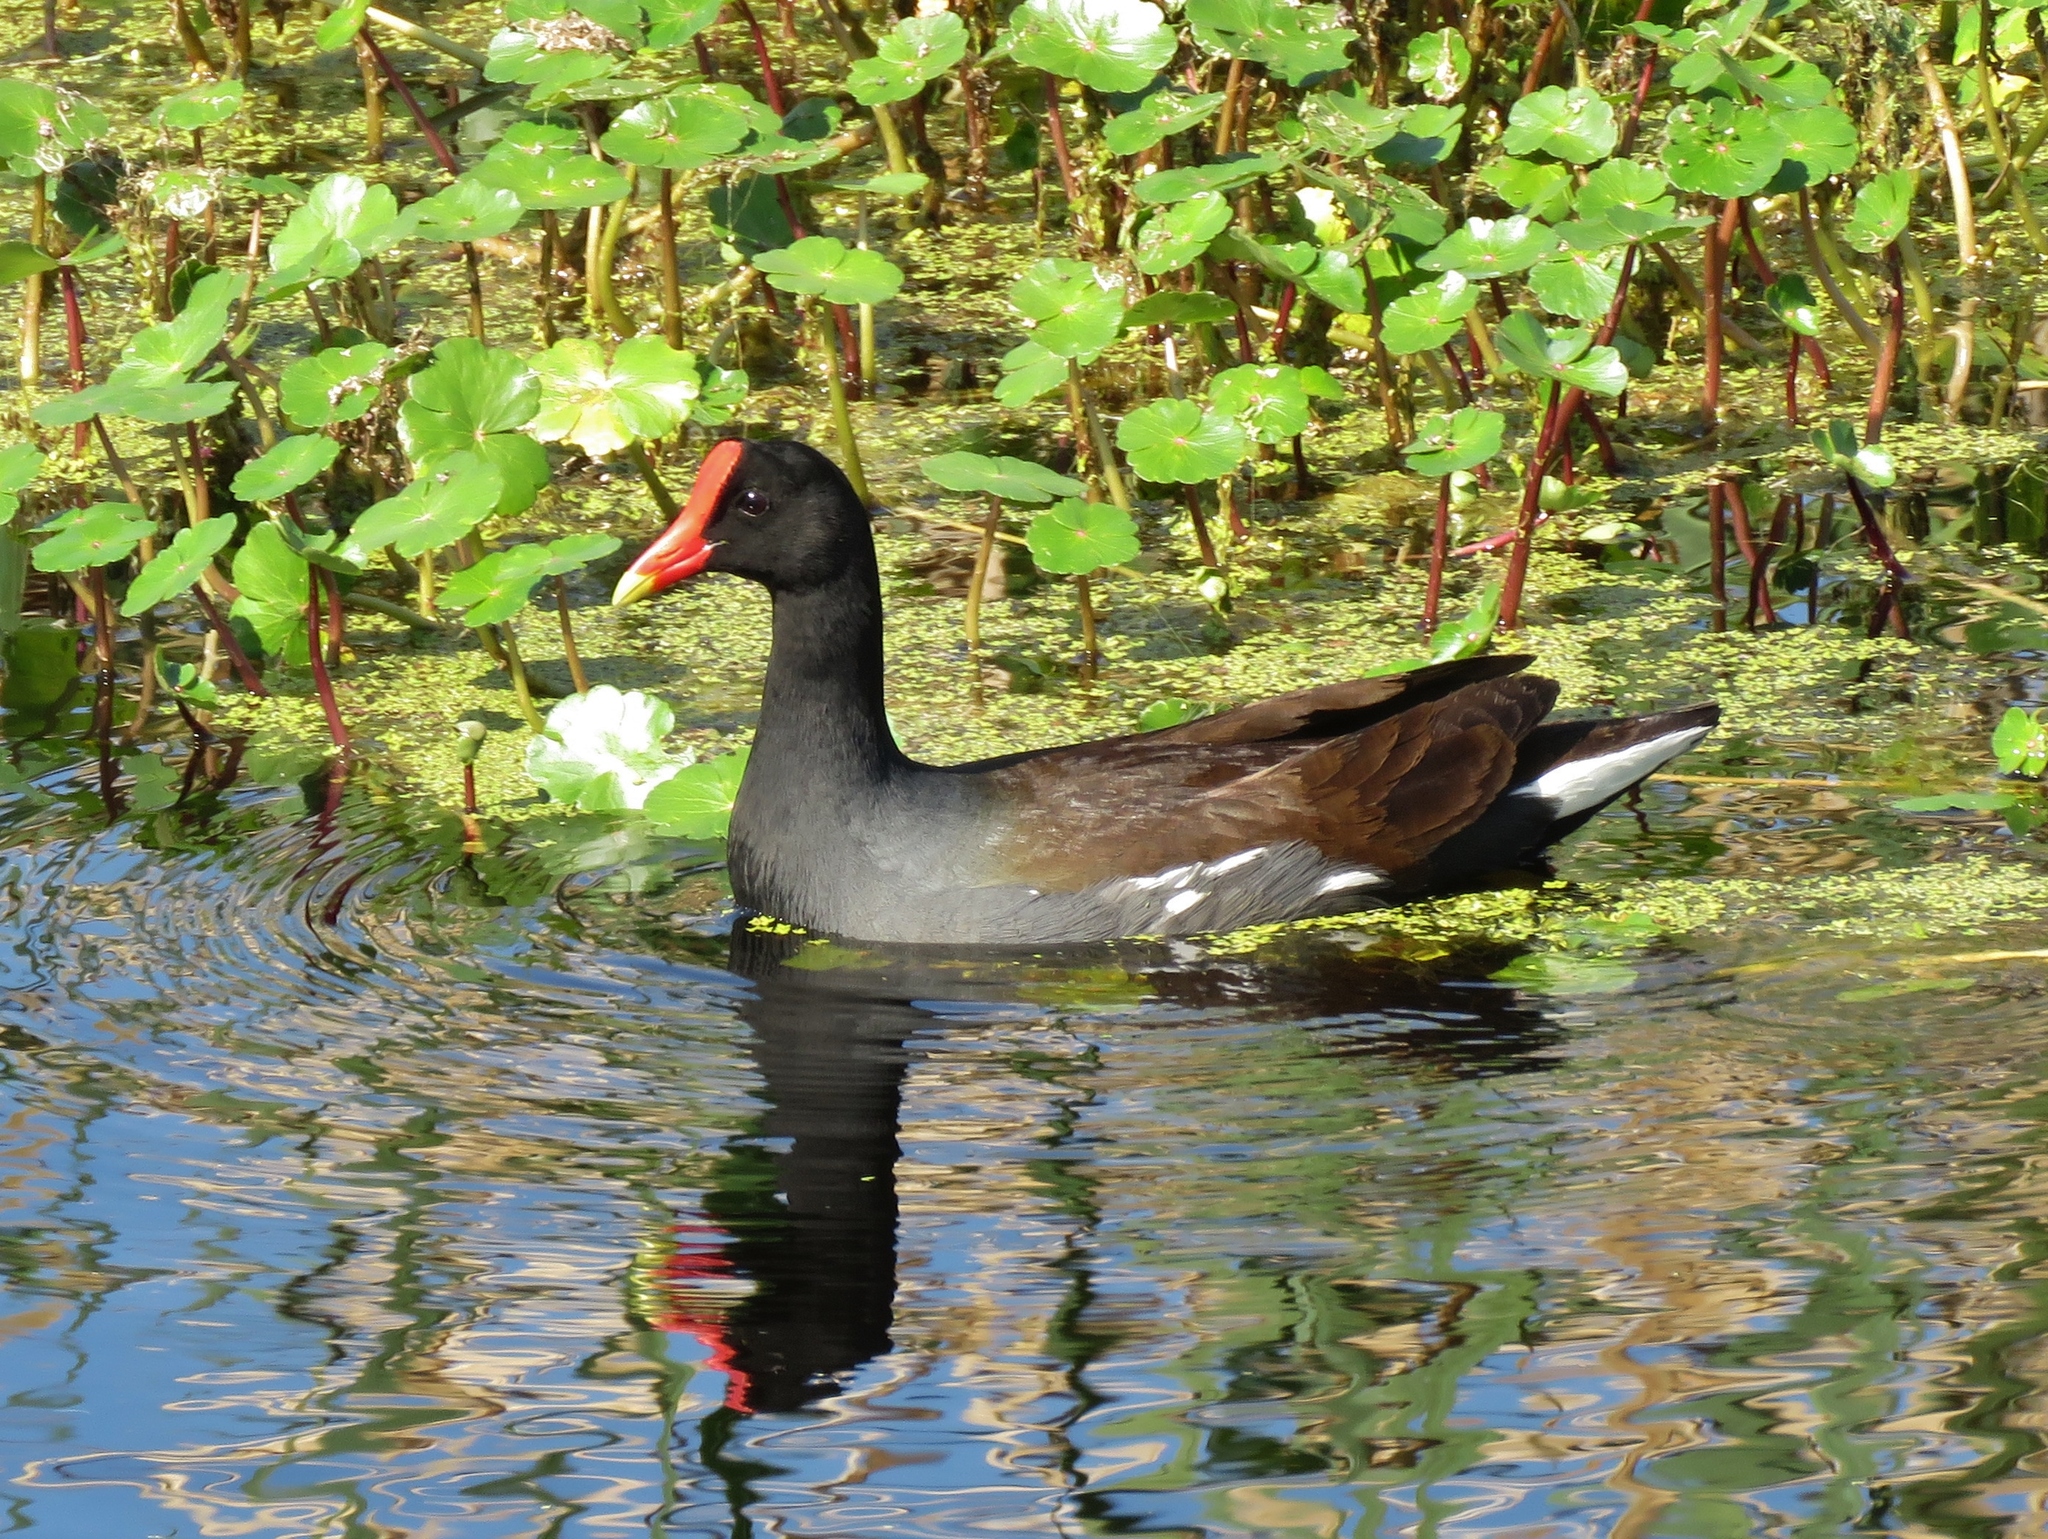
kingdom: Animalia
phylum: Chordata
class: Aves
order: Gruiformes
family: Rallidae
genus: Gallinula
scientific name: Gallinula chloropus
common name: Common moorhen
